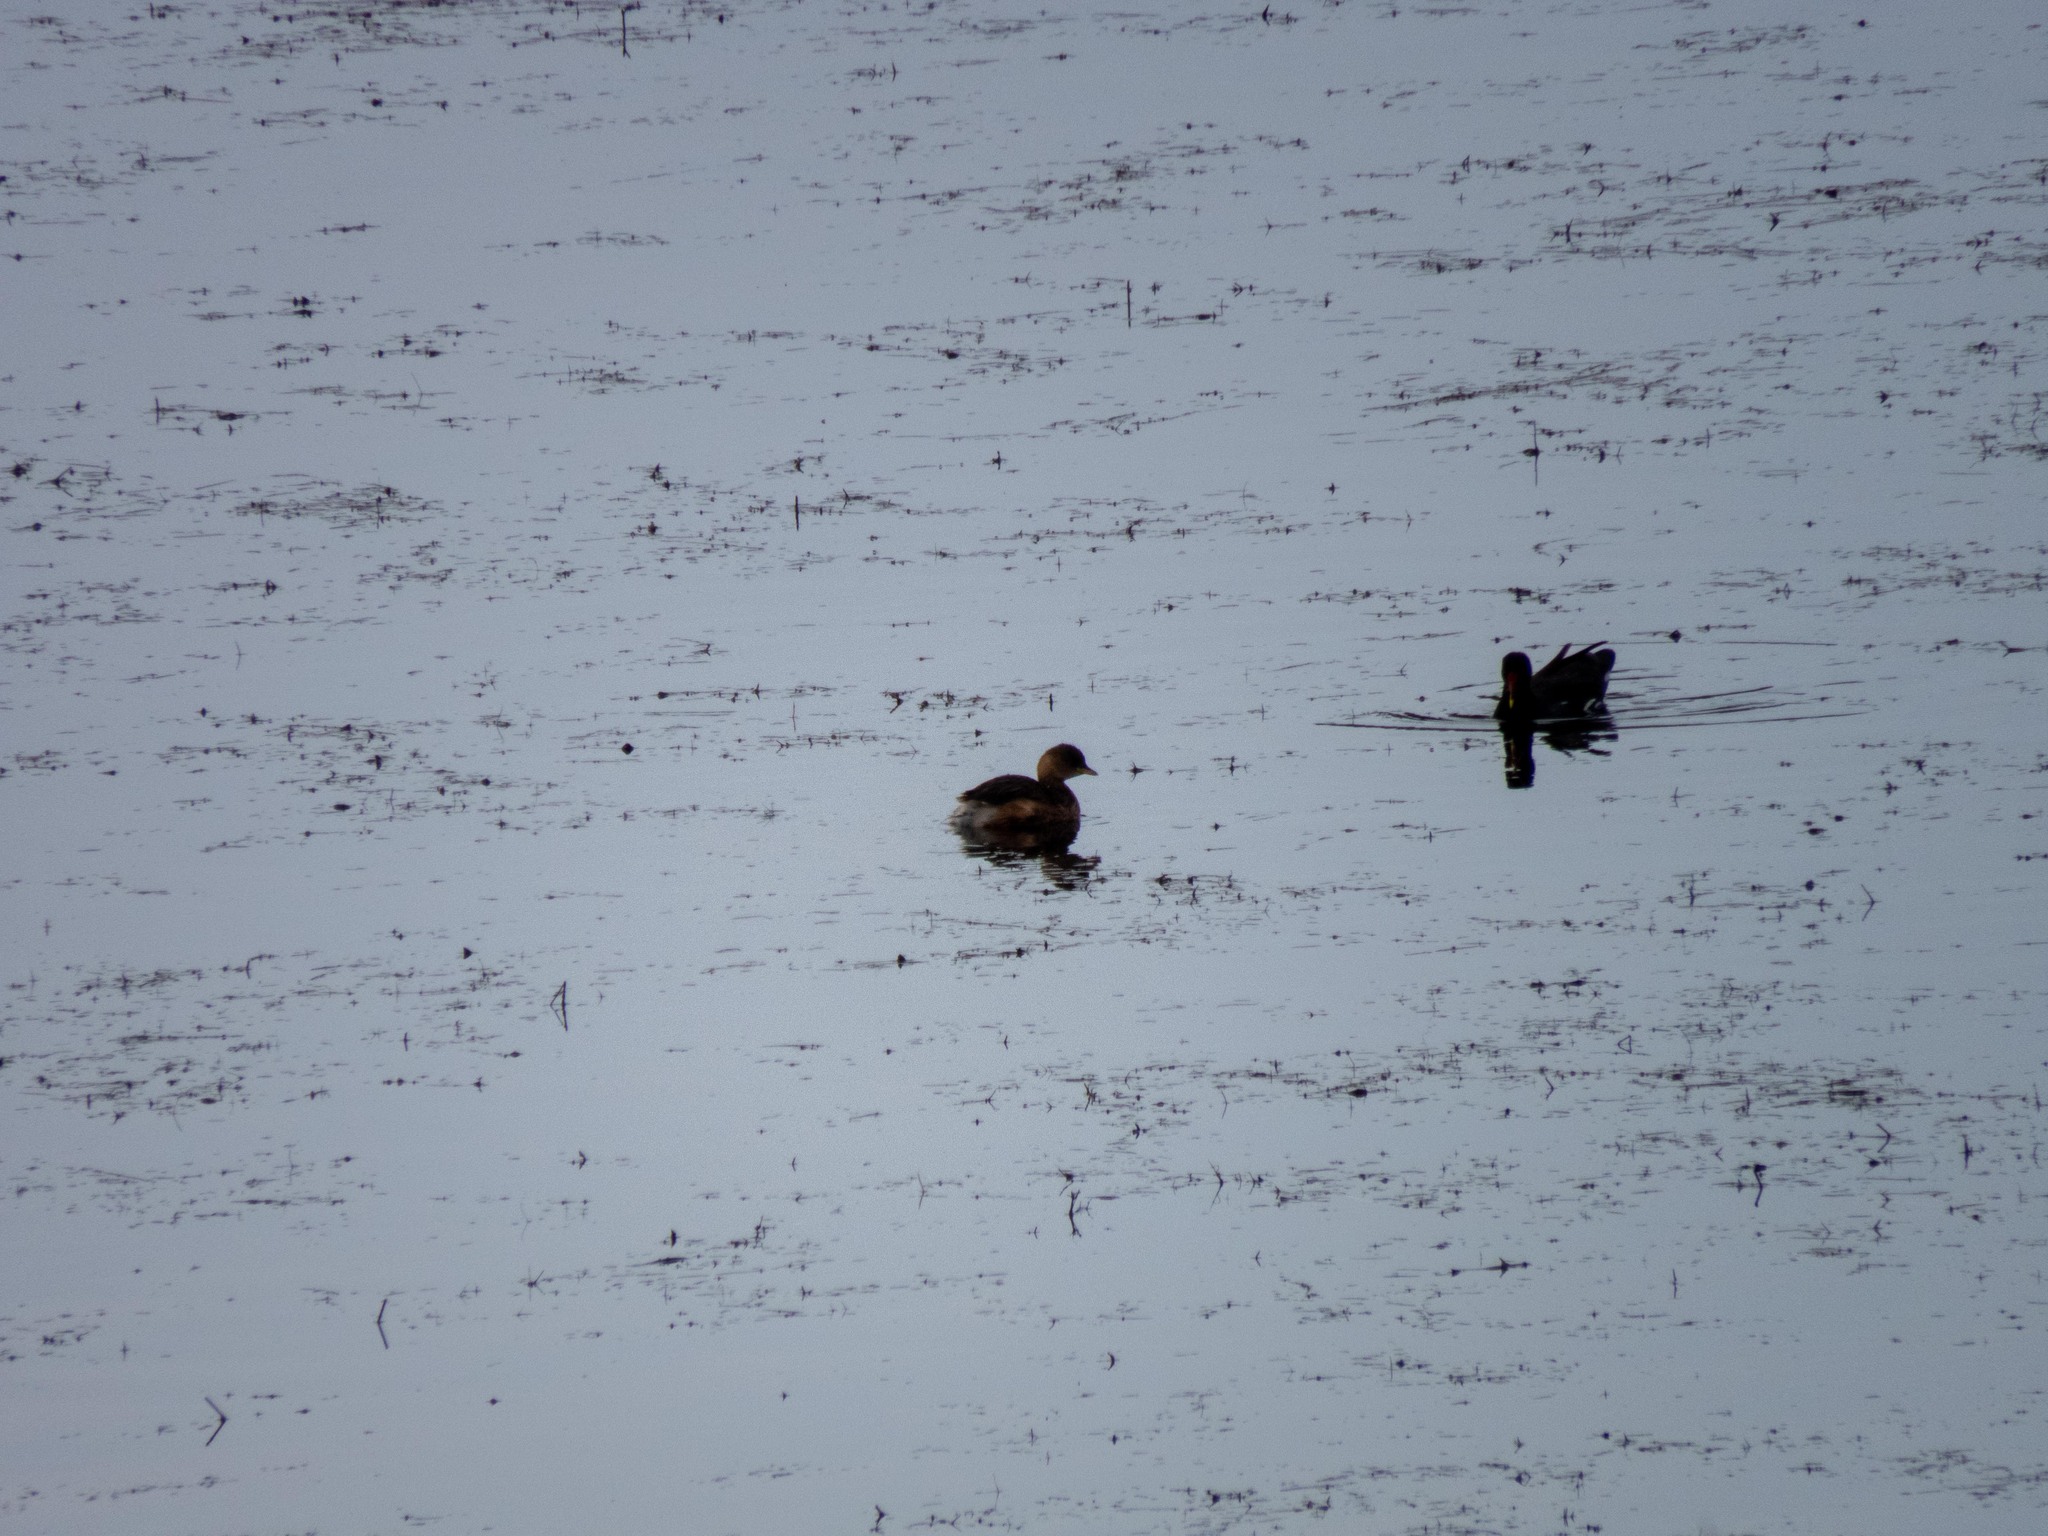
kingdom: Animalia
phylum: Chordata
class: Aves
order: Podicipediformes
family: Podicipedidae
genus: Tachybaptus
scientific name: Tachybaptus ruficollis
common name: Little grebe
